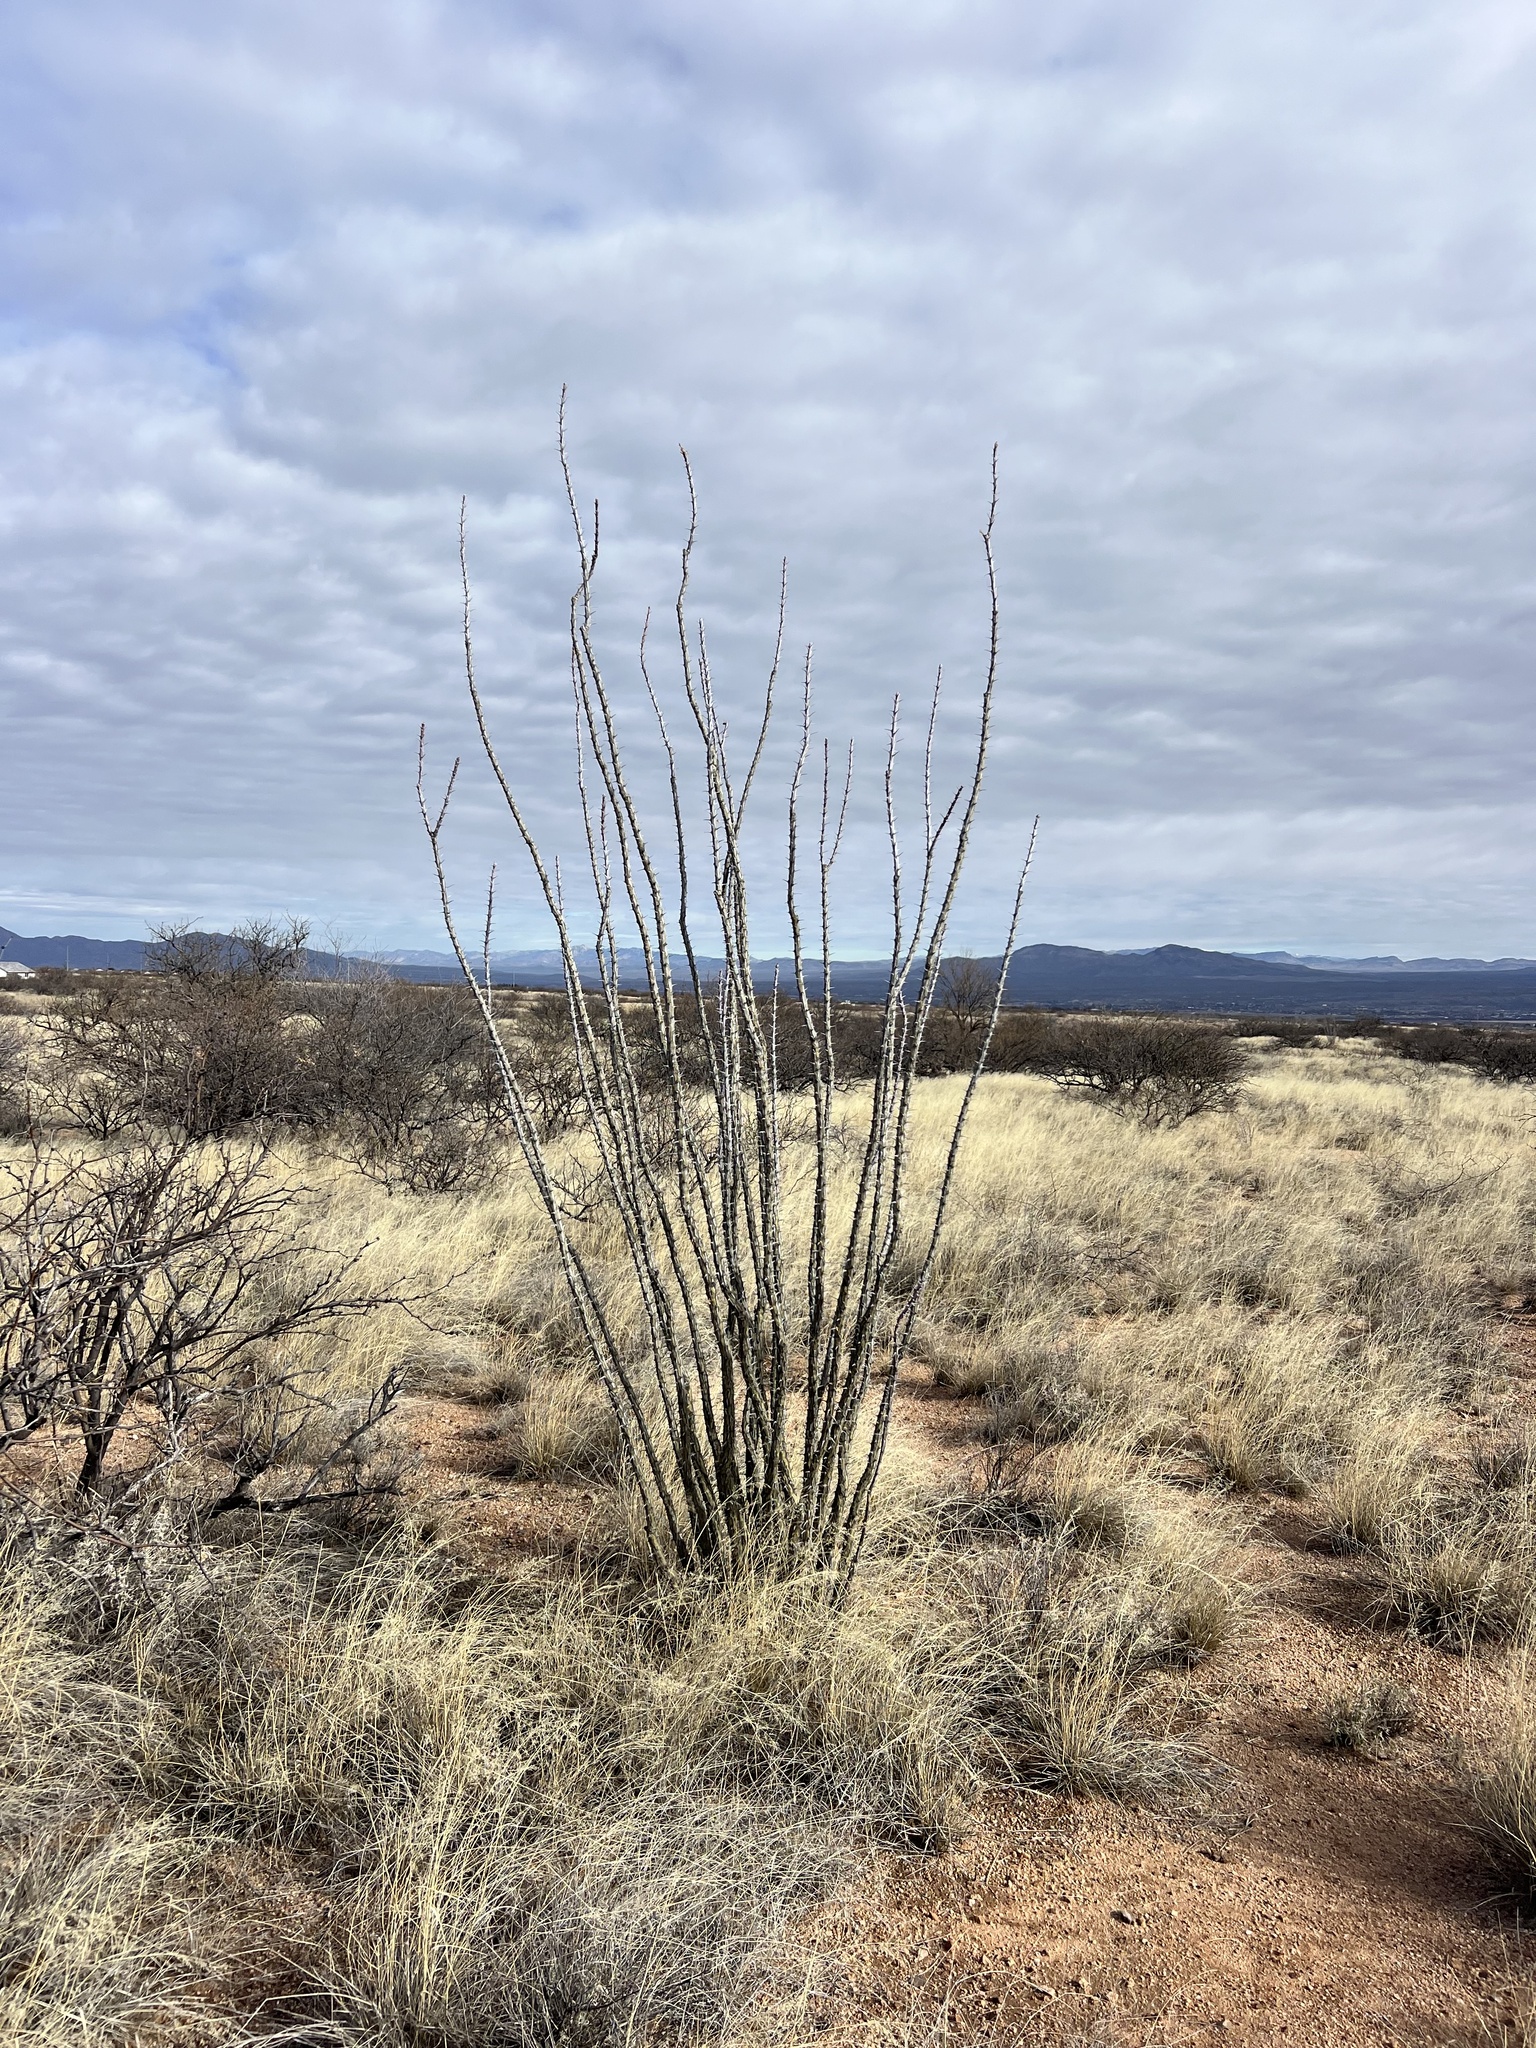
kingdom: Plantae
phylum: Tracheophyta
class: Magnoliopsida
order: Ericales
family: Fouquieriaceae
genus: Fouquieria
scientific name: Fouquieria splendens
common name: Vine-cactus
